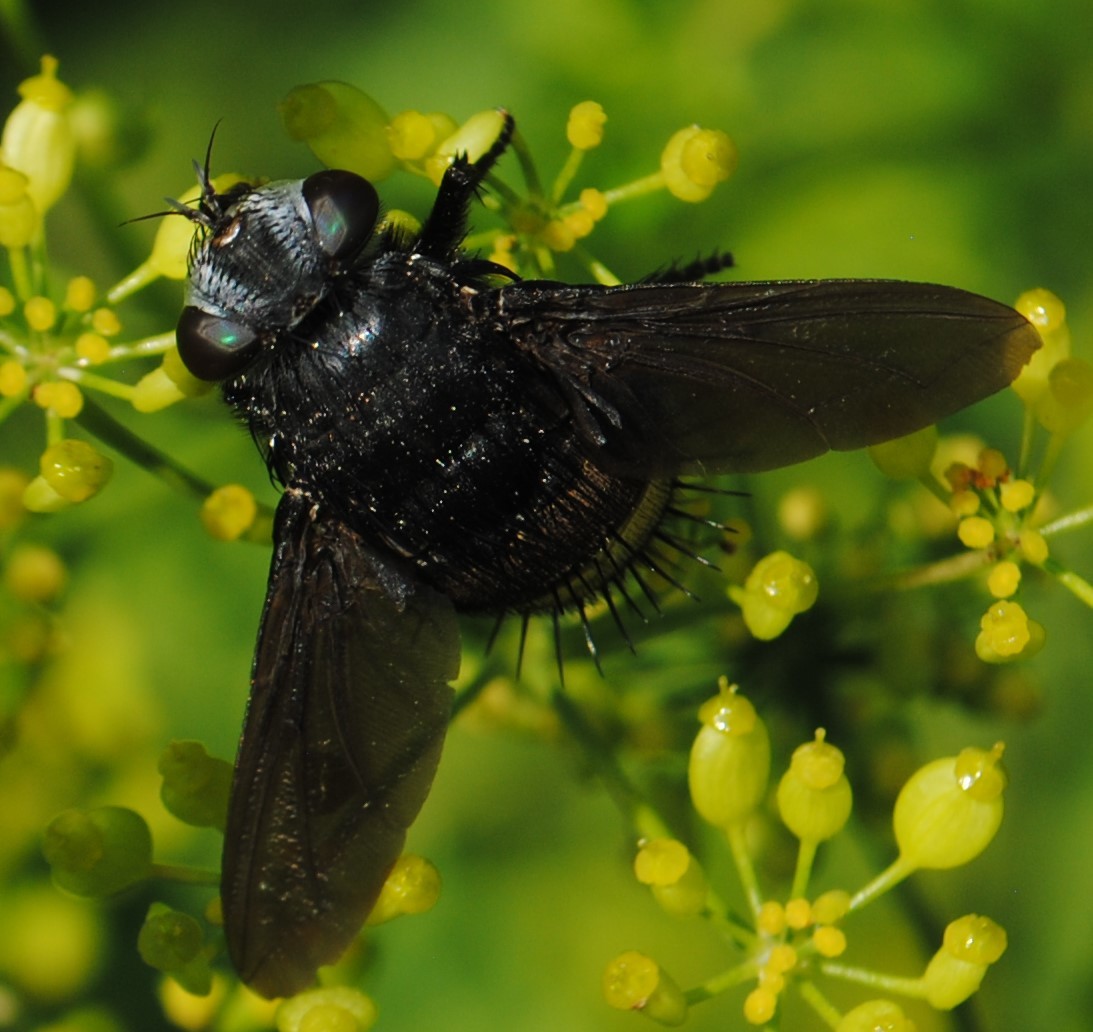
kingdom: Animalia
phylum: Arthropoda
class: Insecta
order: Diptera
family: Tachinidae
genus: Belvosia
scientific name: Belvosia borealis
